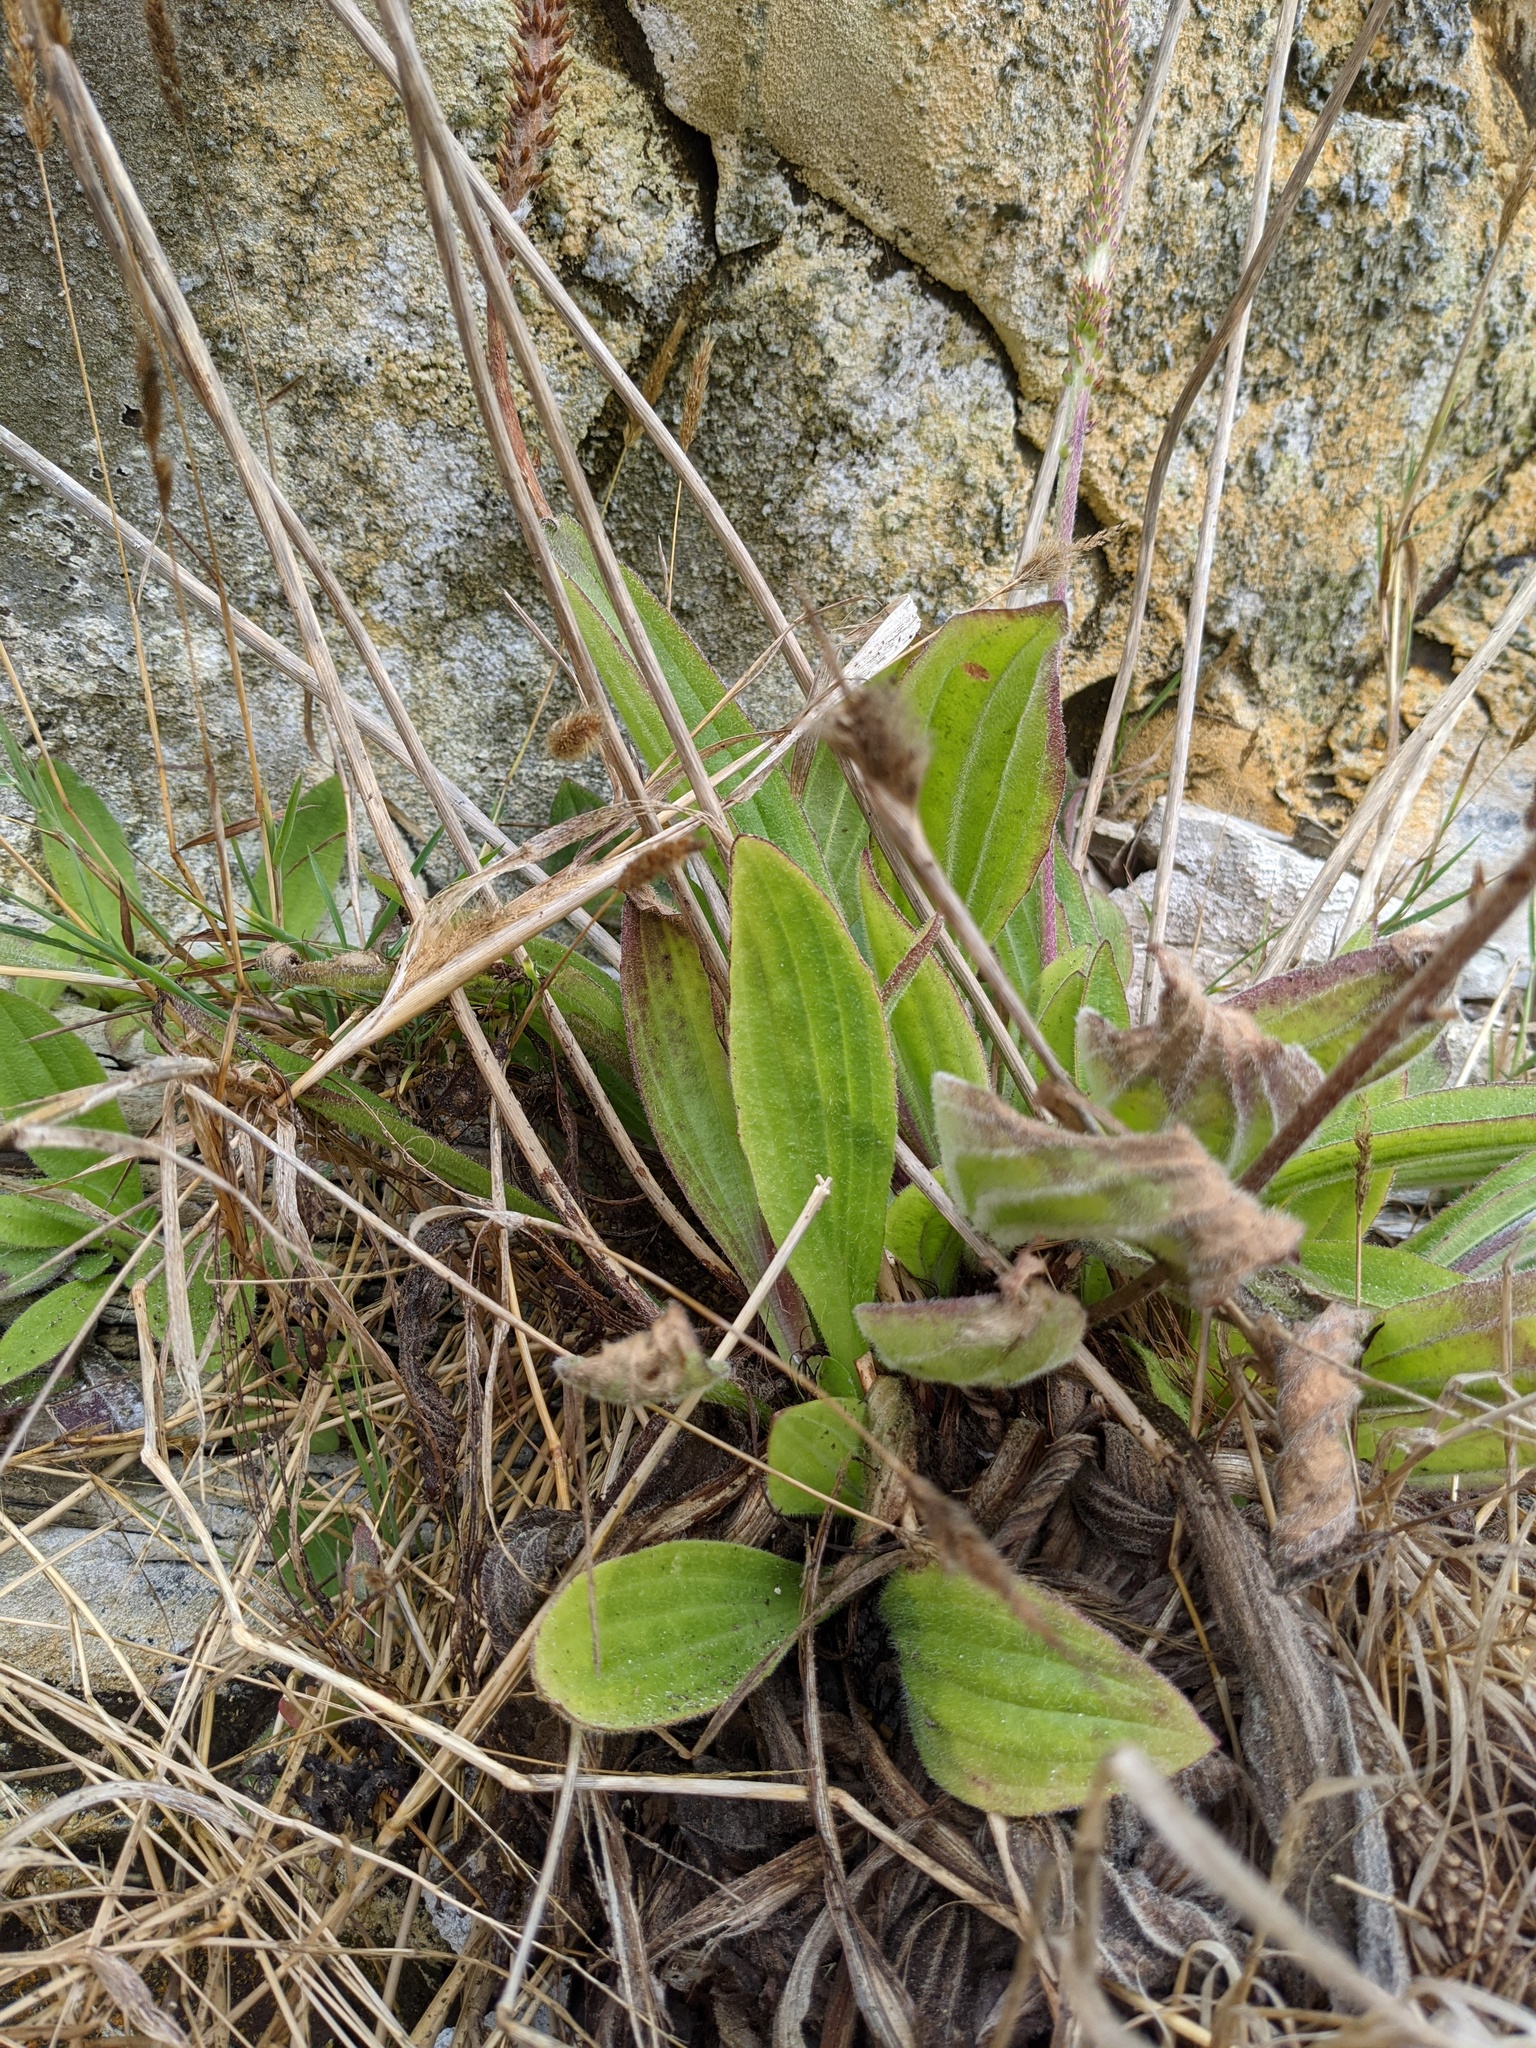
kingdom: Plantae
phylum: Tracheophyta
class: Magnoliopsida
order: Lamiales
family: Plantaginaceae
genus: Plantago
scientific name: Plantago subnuda
